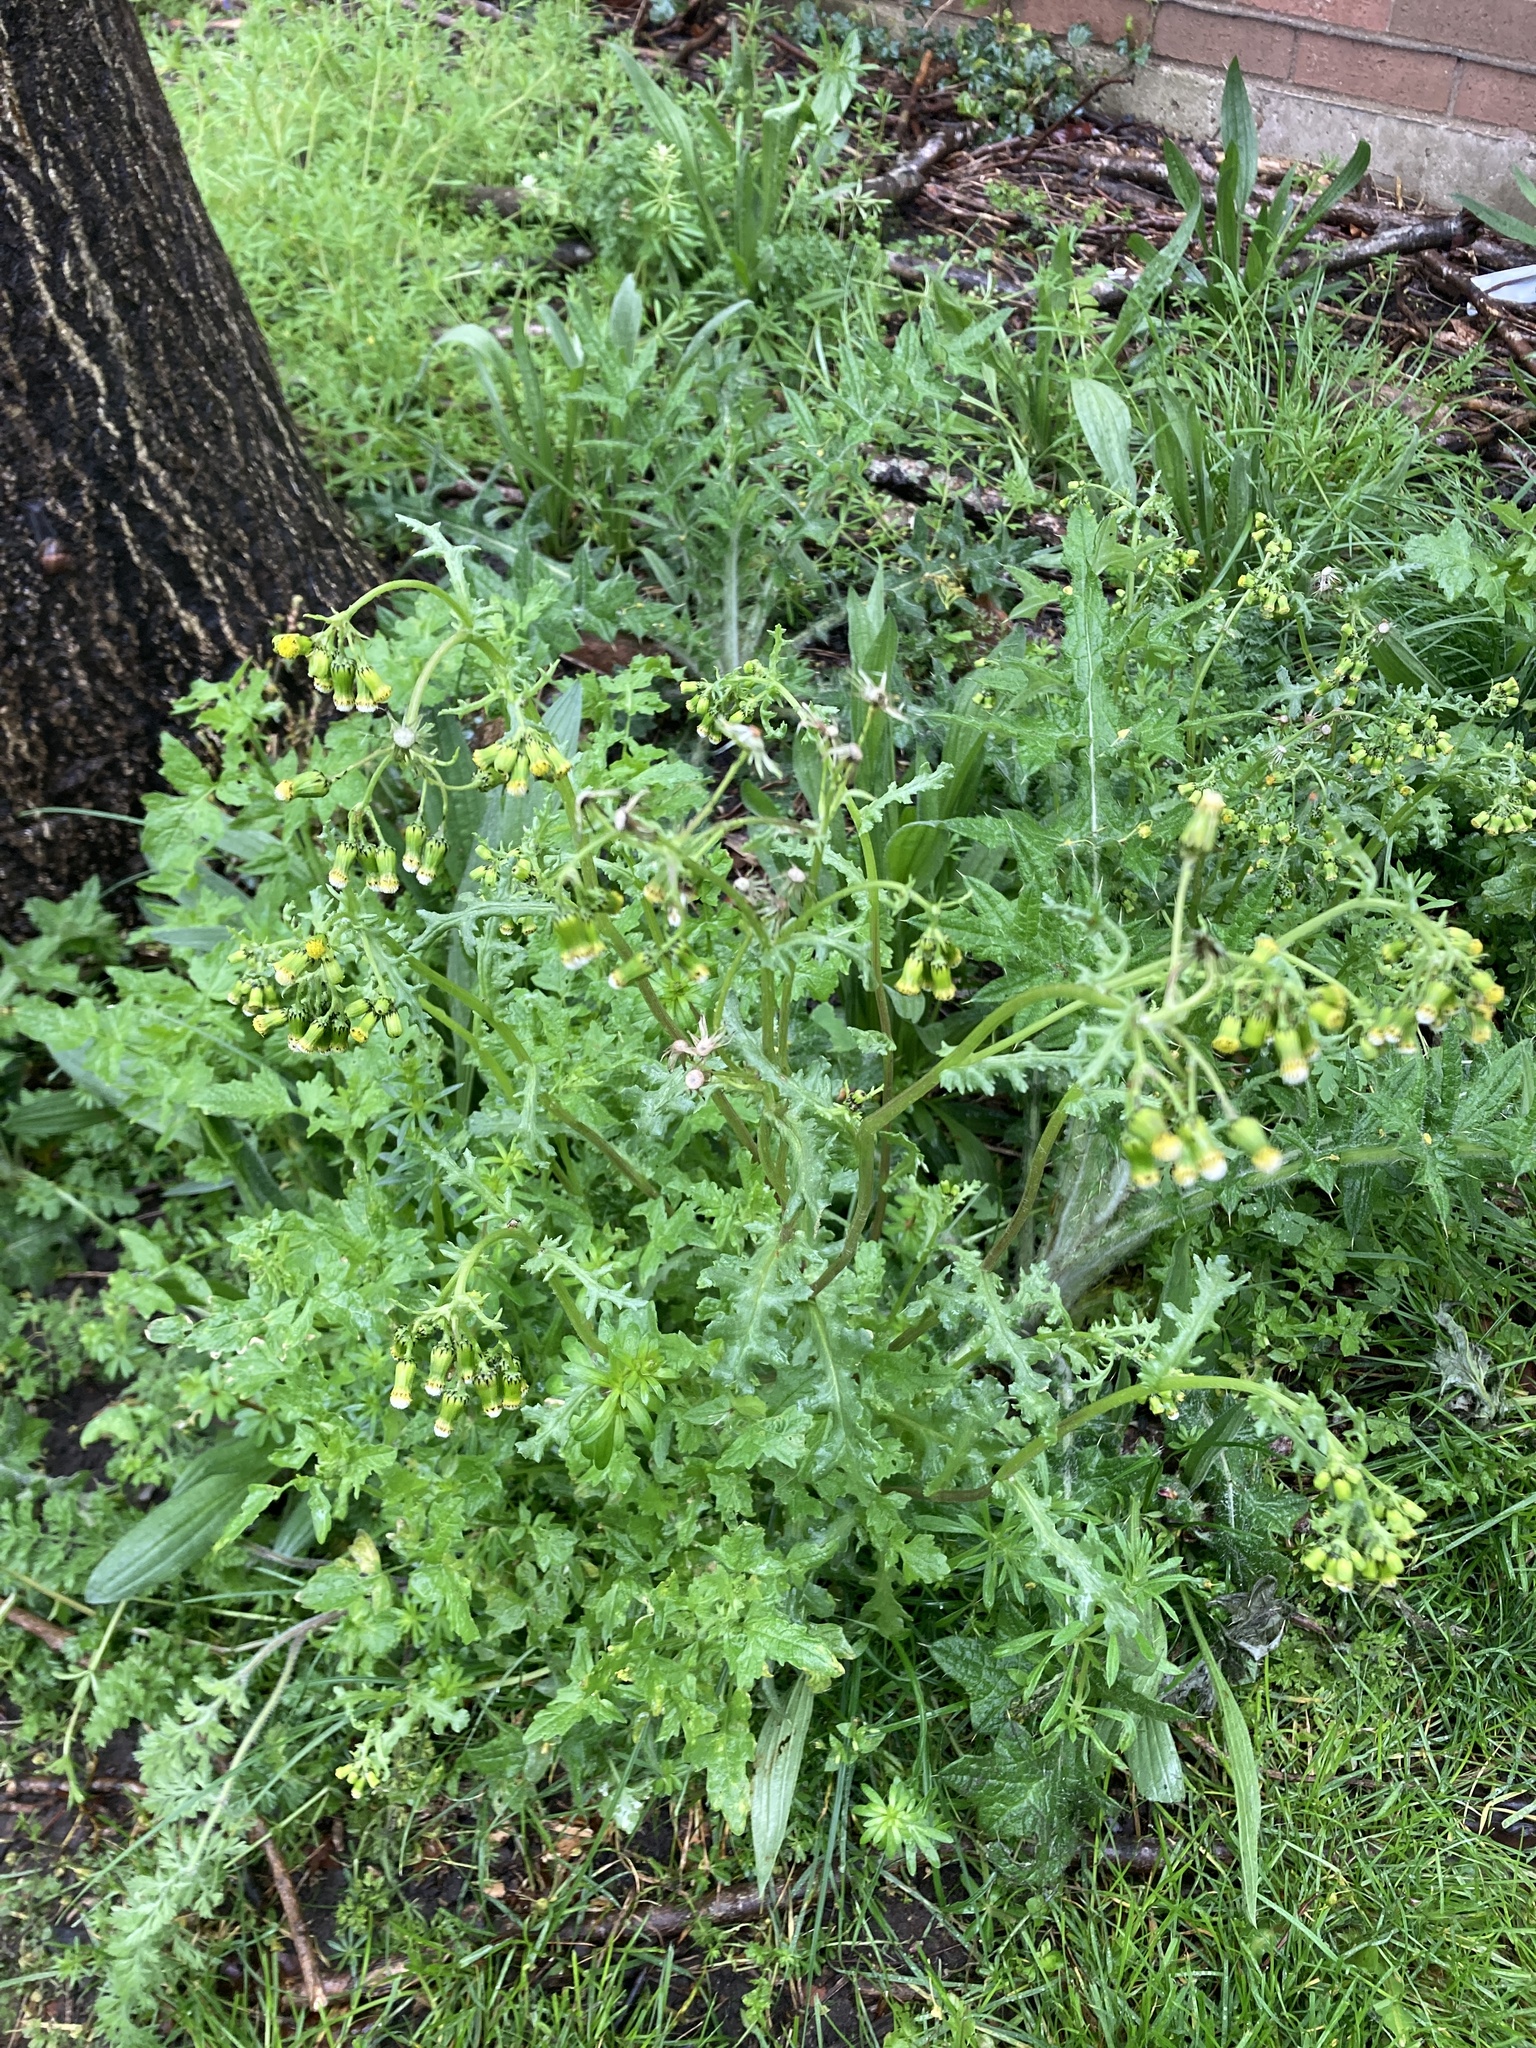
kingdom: Plantae
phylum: Tracheophyta
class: Magnoliopsida
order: Asterales
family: Asteraceae
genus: Senecio
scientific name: Senecio vulgaris
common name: Old-man-in-the-spring
